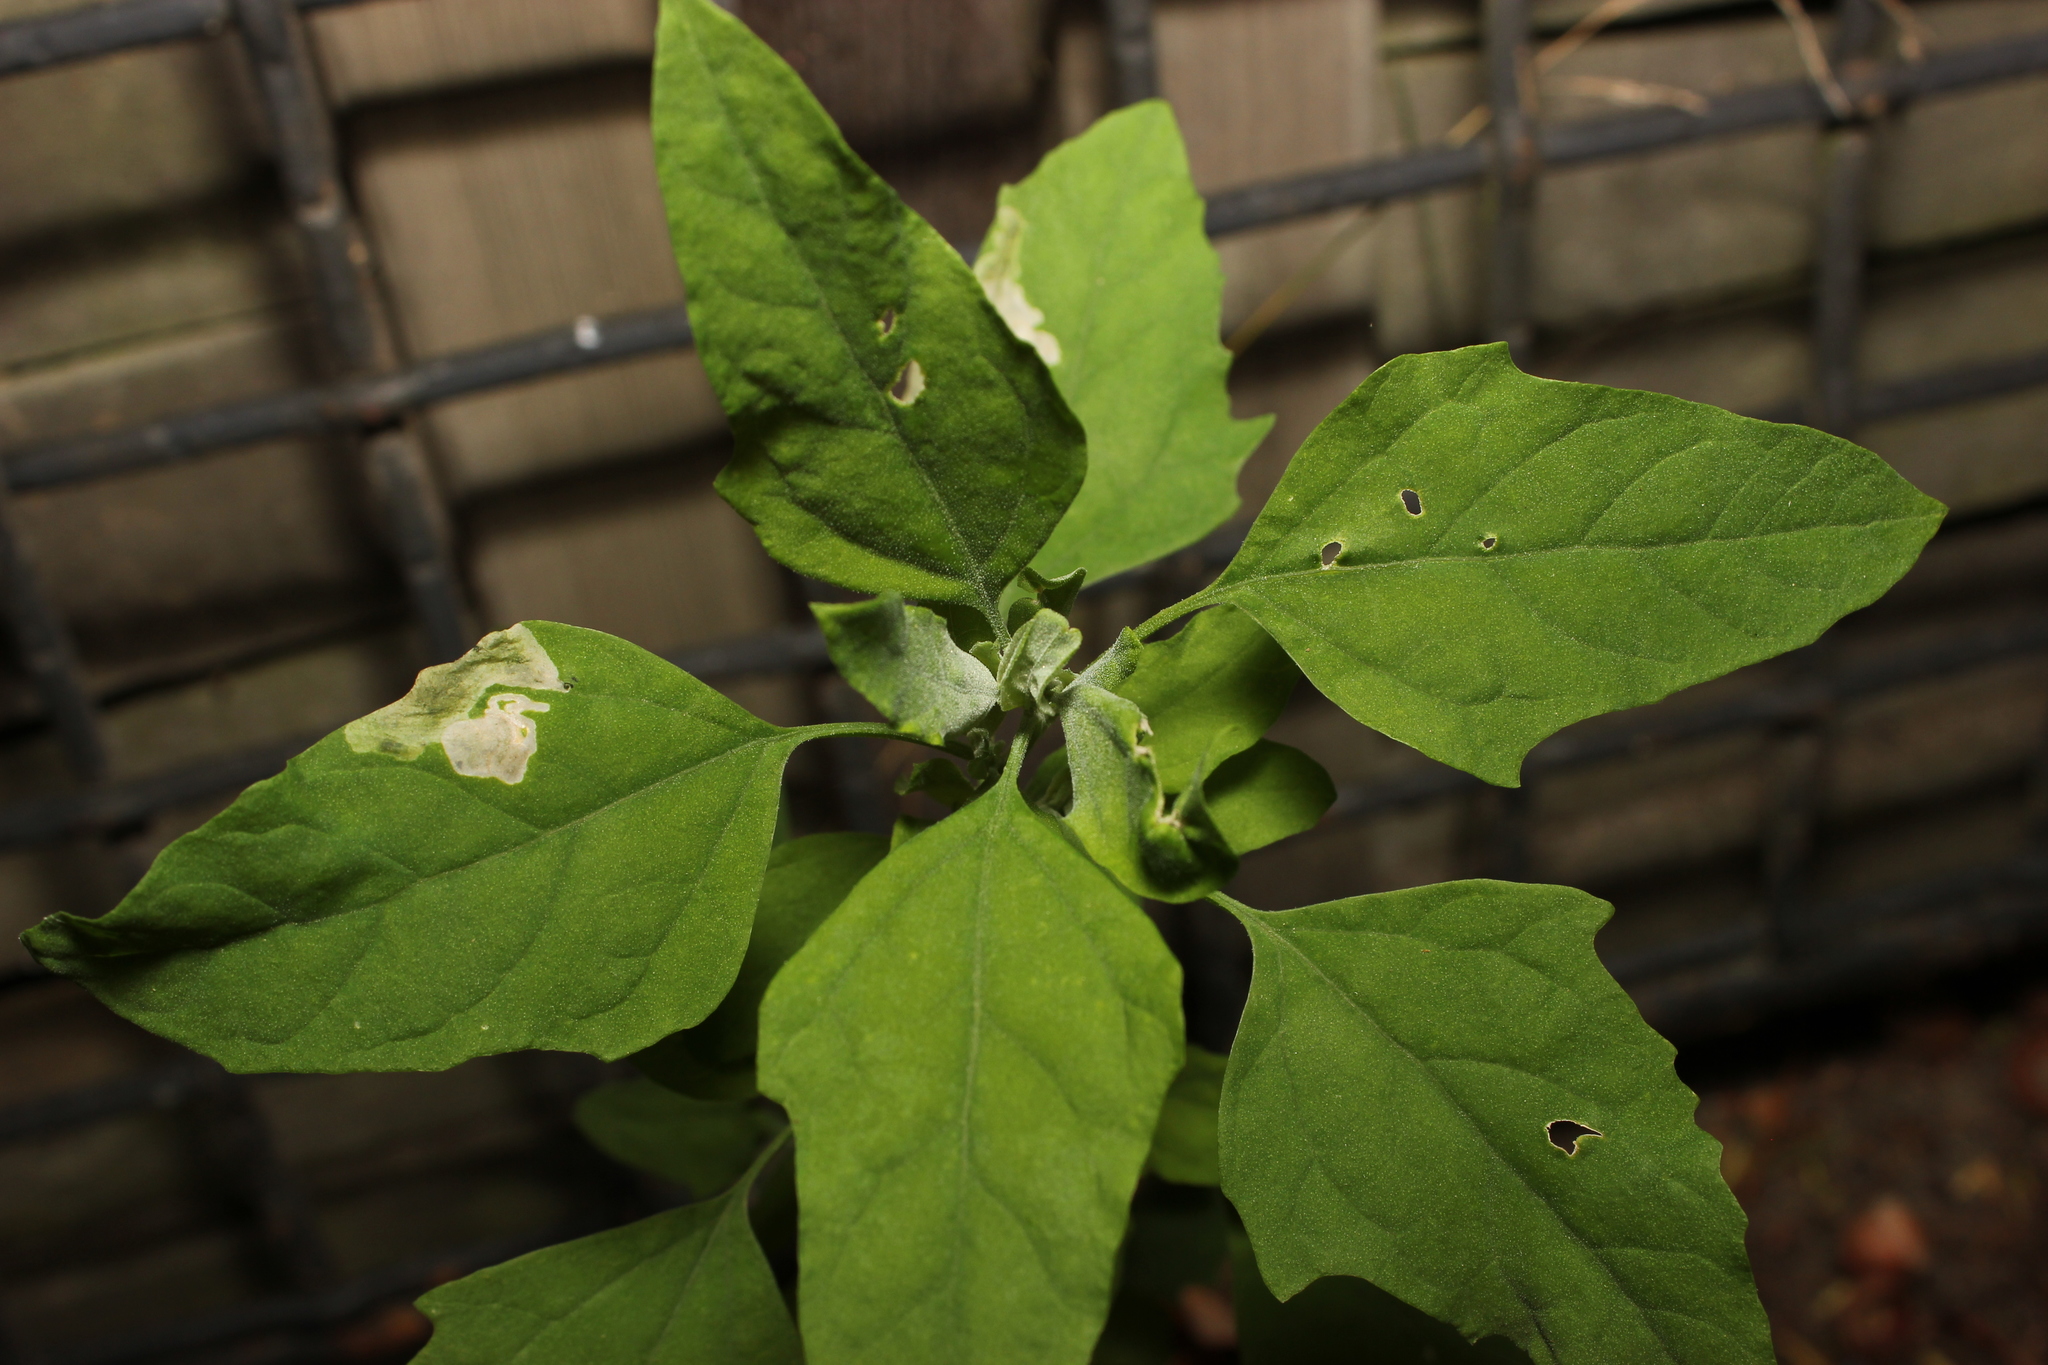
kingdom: Plantae
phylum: Tracheophyta
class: Magnoliopsida
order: Caryophyllales
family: Amaranthaceae
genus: Chenopodium
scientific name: Chenopodium album
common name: Fat-hen
